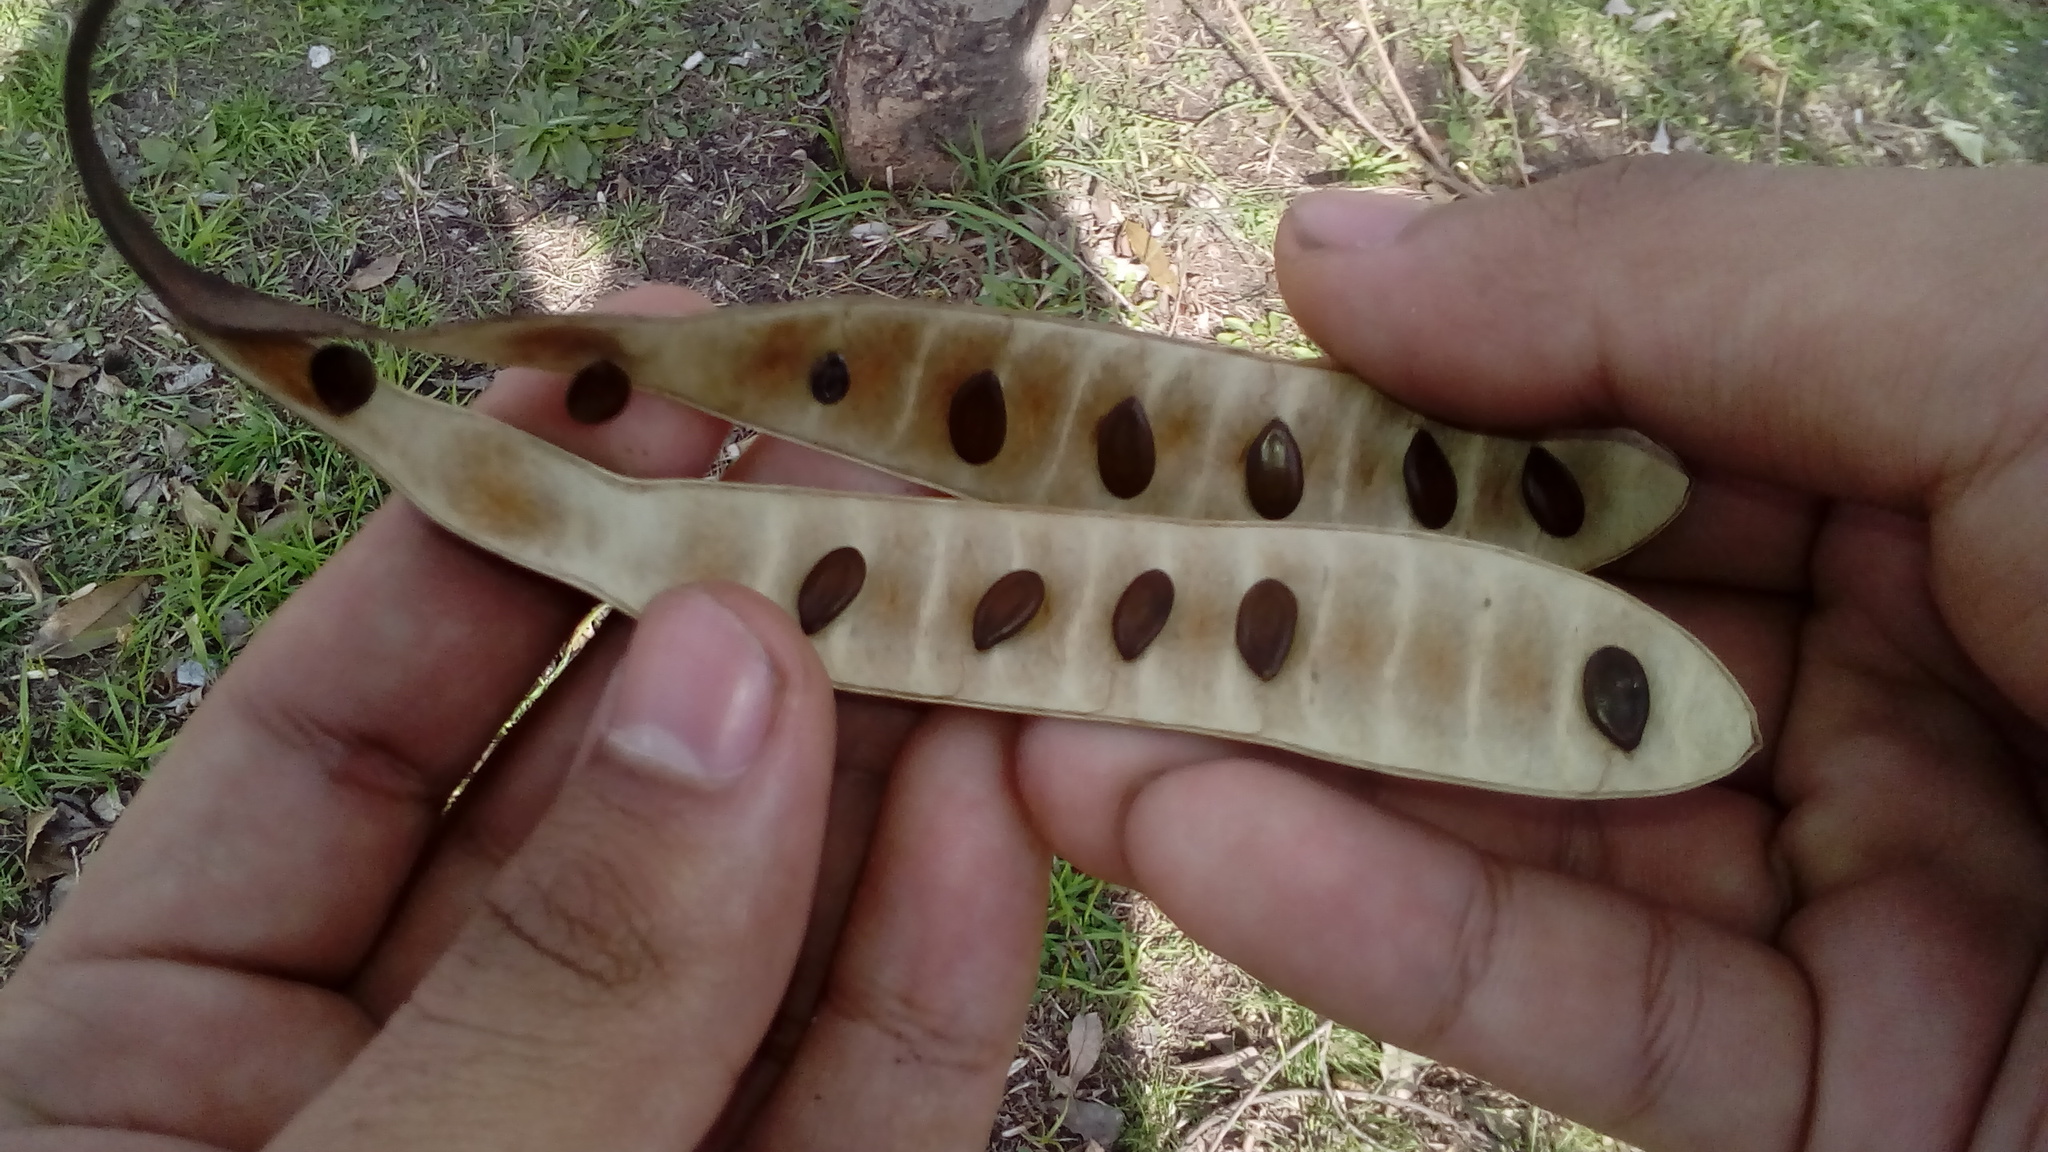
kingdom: Plantae
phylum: Tracheophyta
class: Magnoliopsida
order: Fabales
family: Fabaceae
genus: Leucaena
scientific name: Leucaena leucocephala
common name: White leadtree
